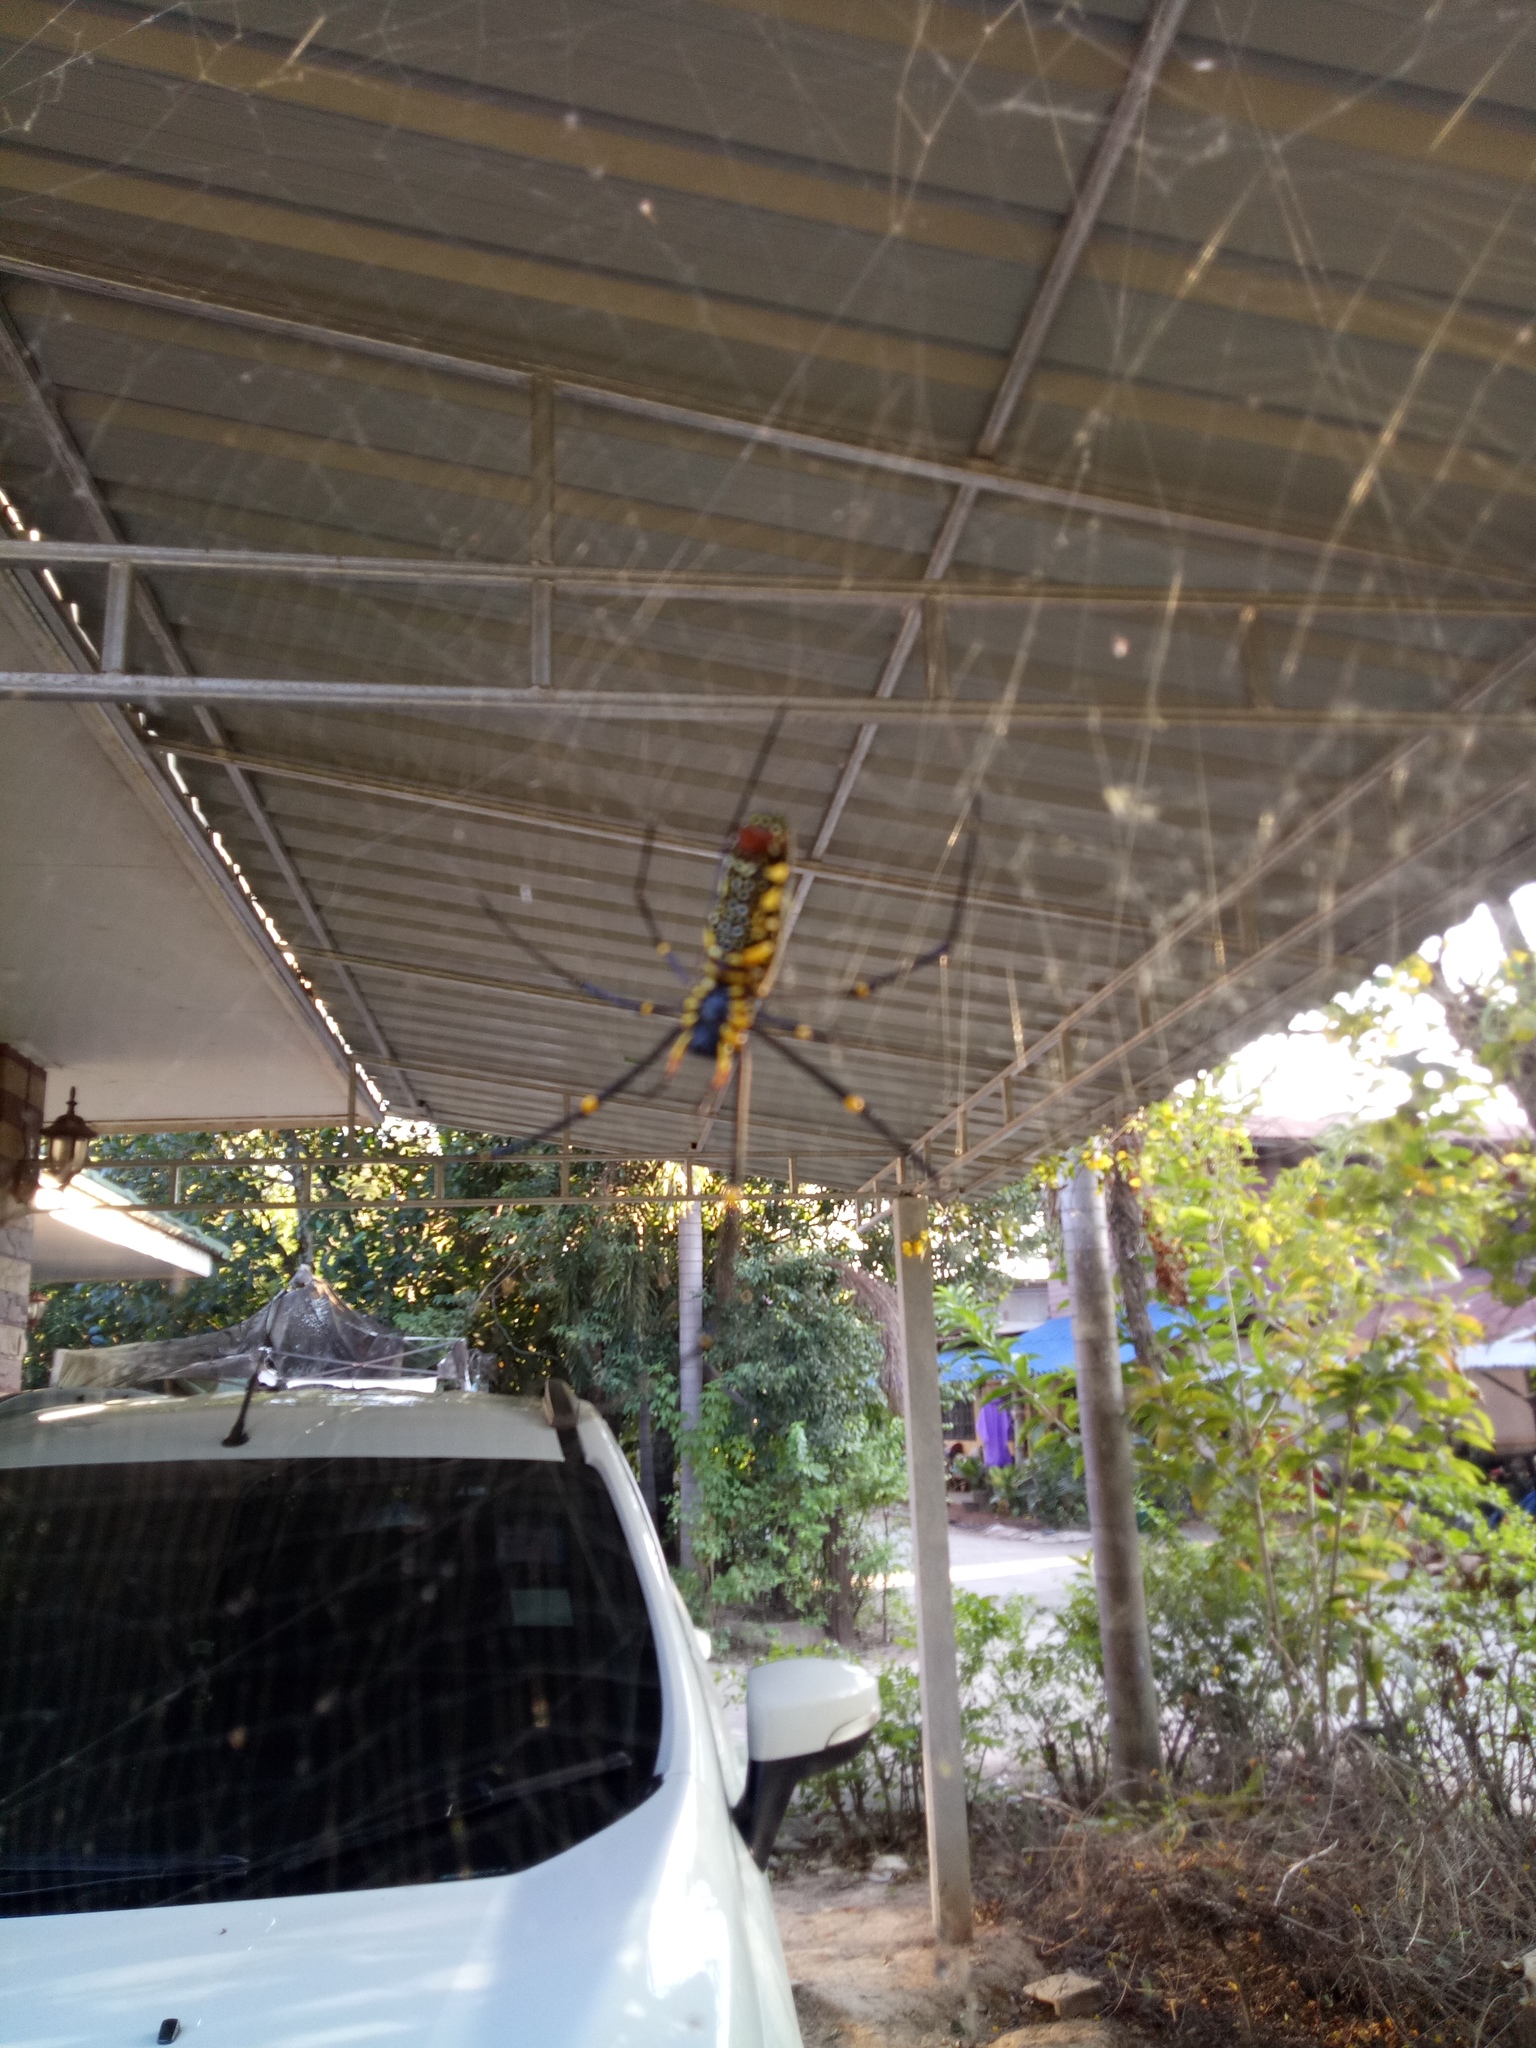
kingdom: Animalia
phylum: Arthropoda
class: Arachnida
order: Araneae
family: Araneidae
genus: Nephila
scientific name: Nephila pilipes
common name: Giant golden orb weaver
